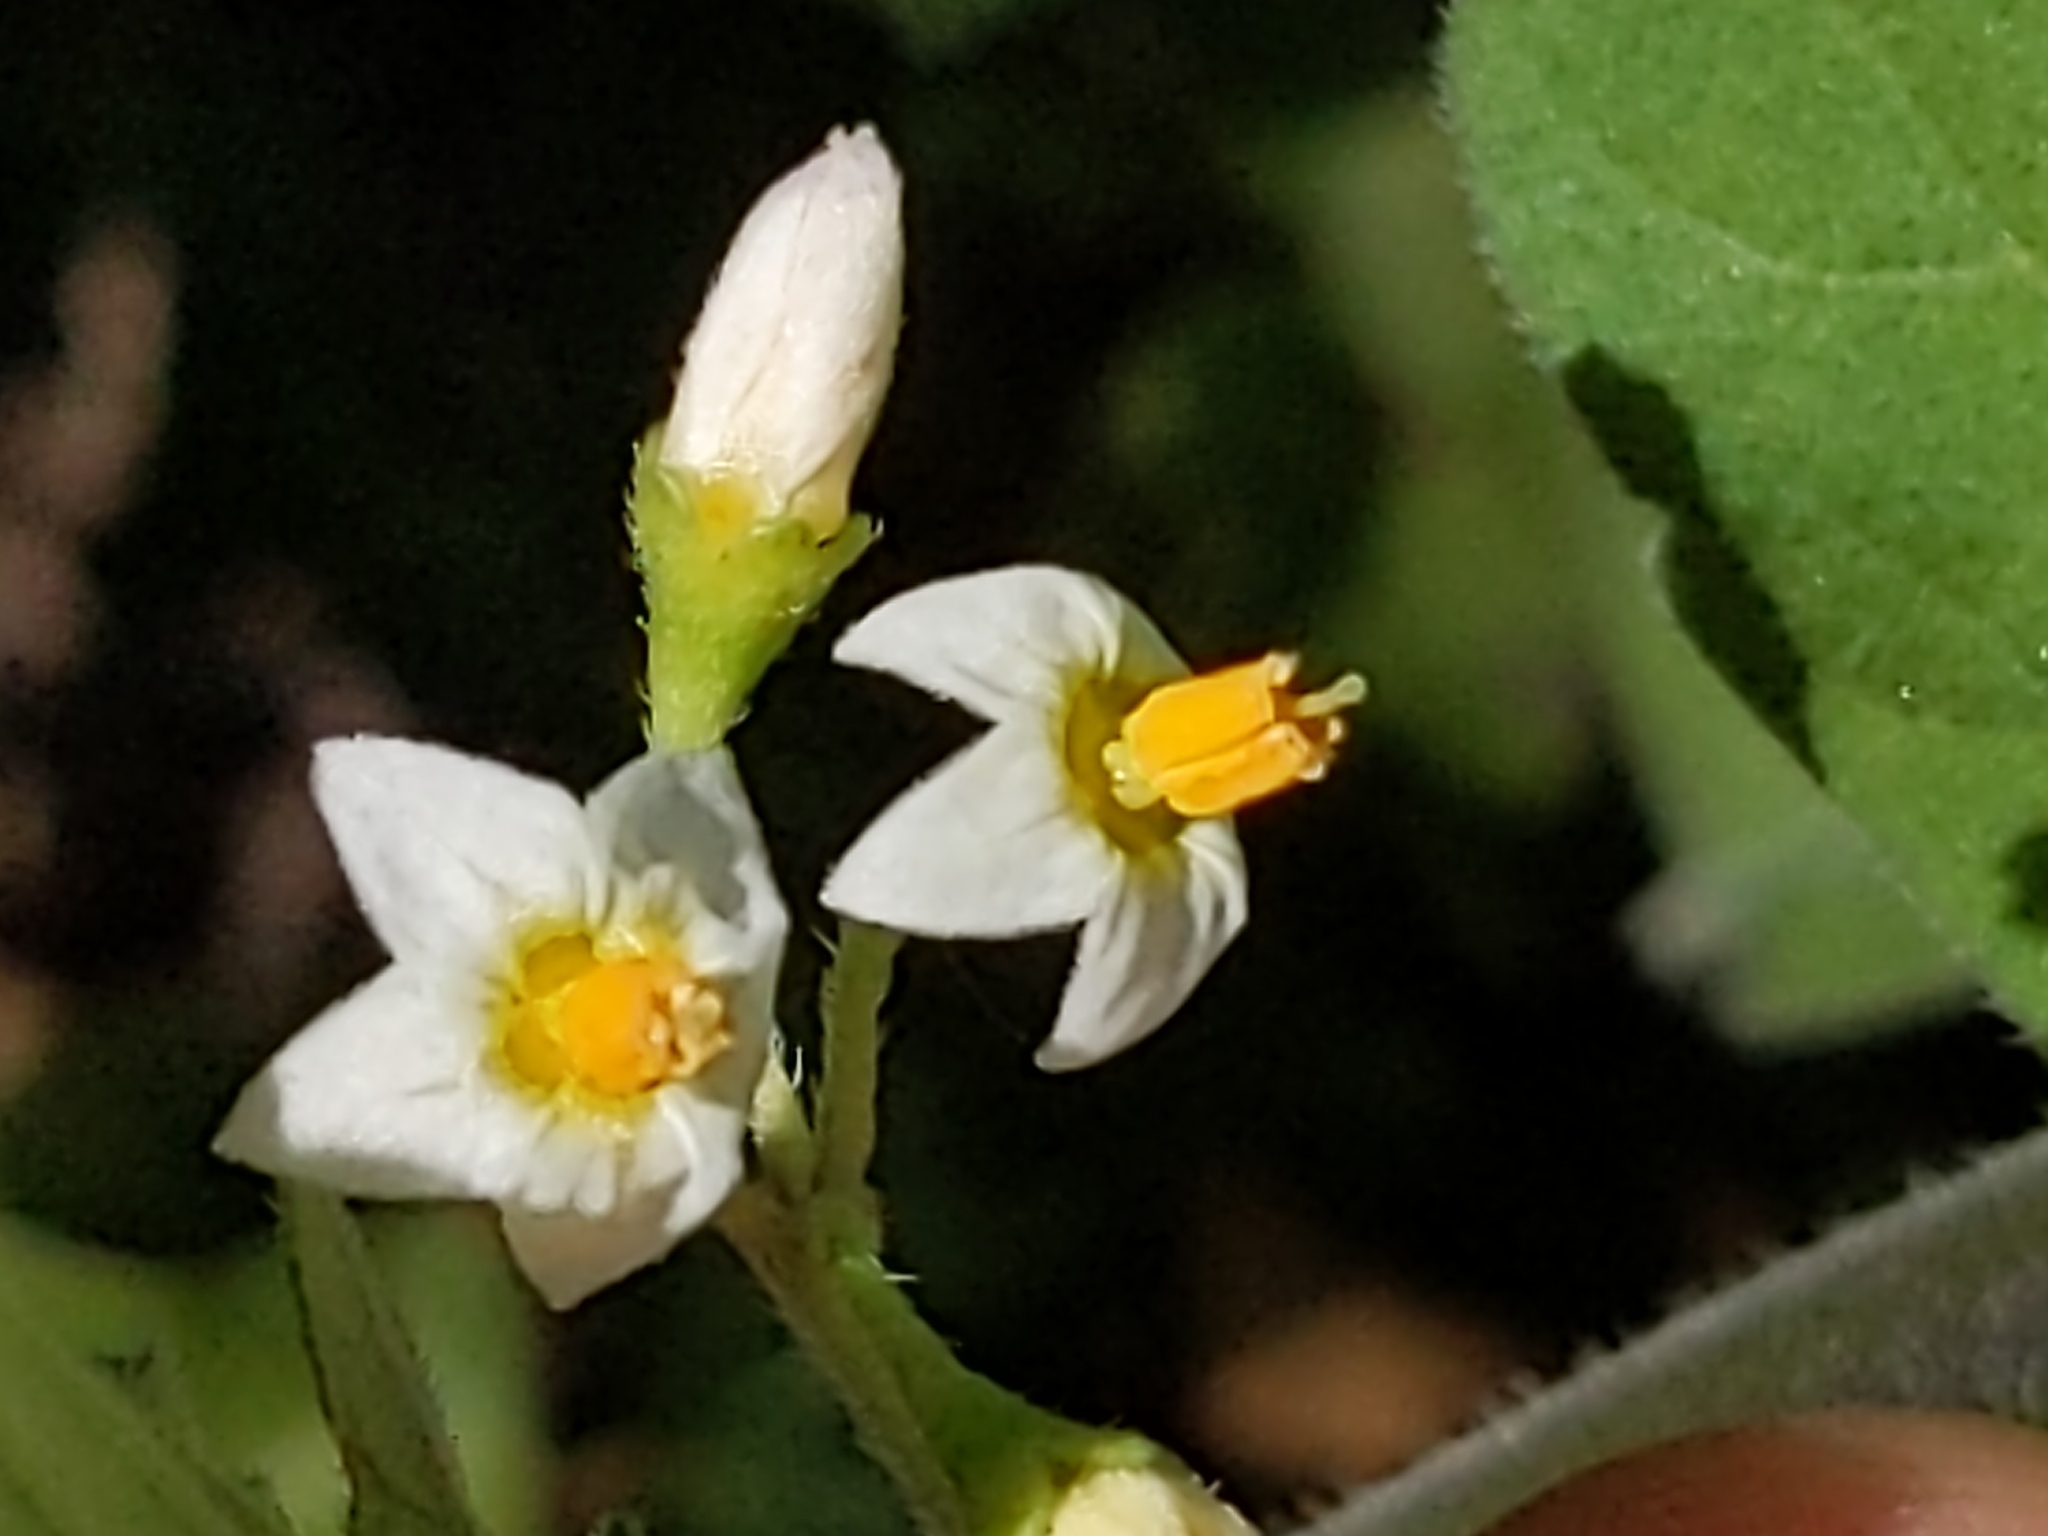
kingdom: Plantae
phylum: Tracheophyta
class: Magnoliopsida
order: Solanales
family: Solanaceae
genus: Solanum
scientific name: Solanum nigrum
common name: Black nightshade
